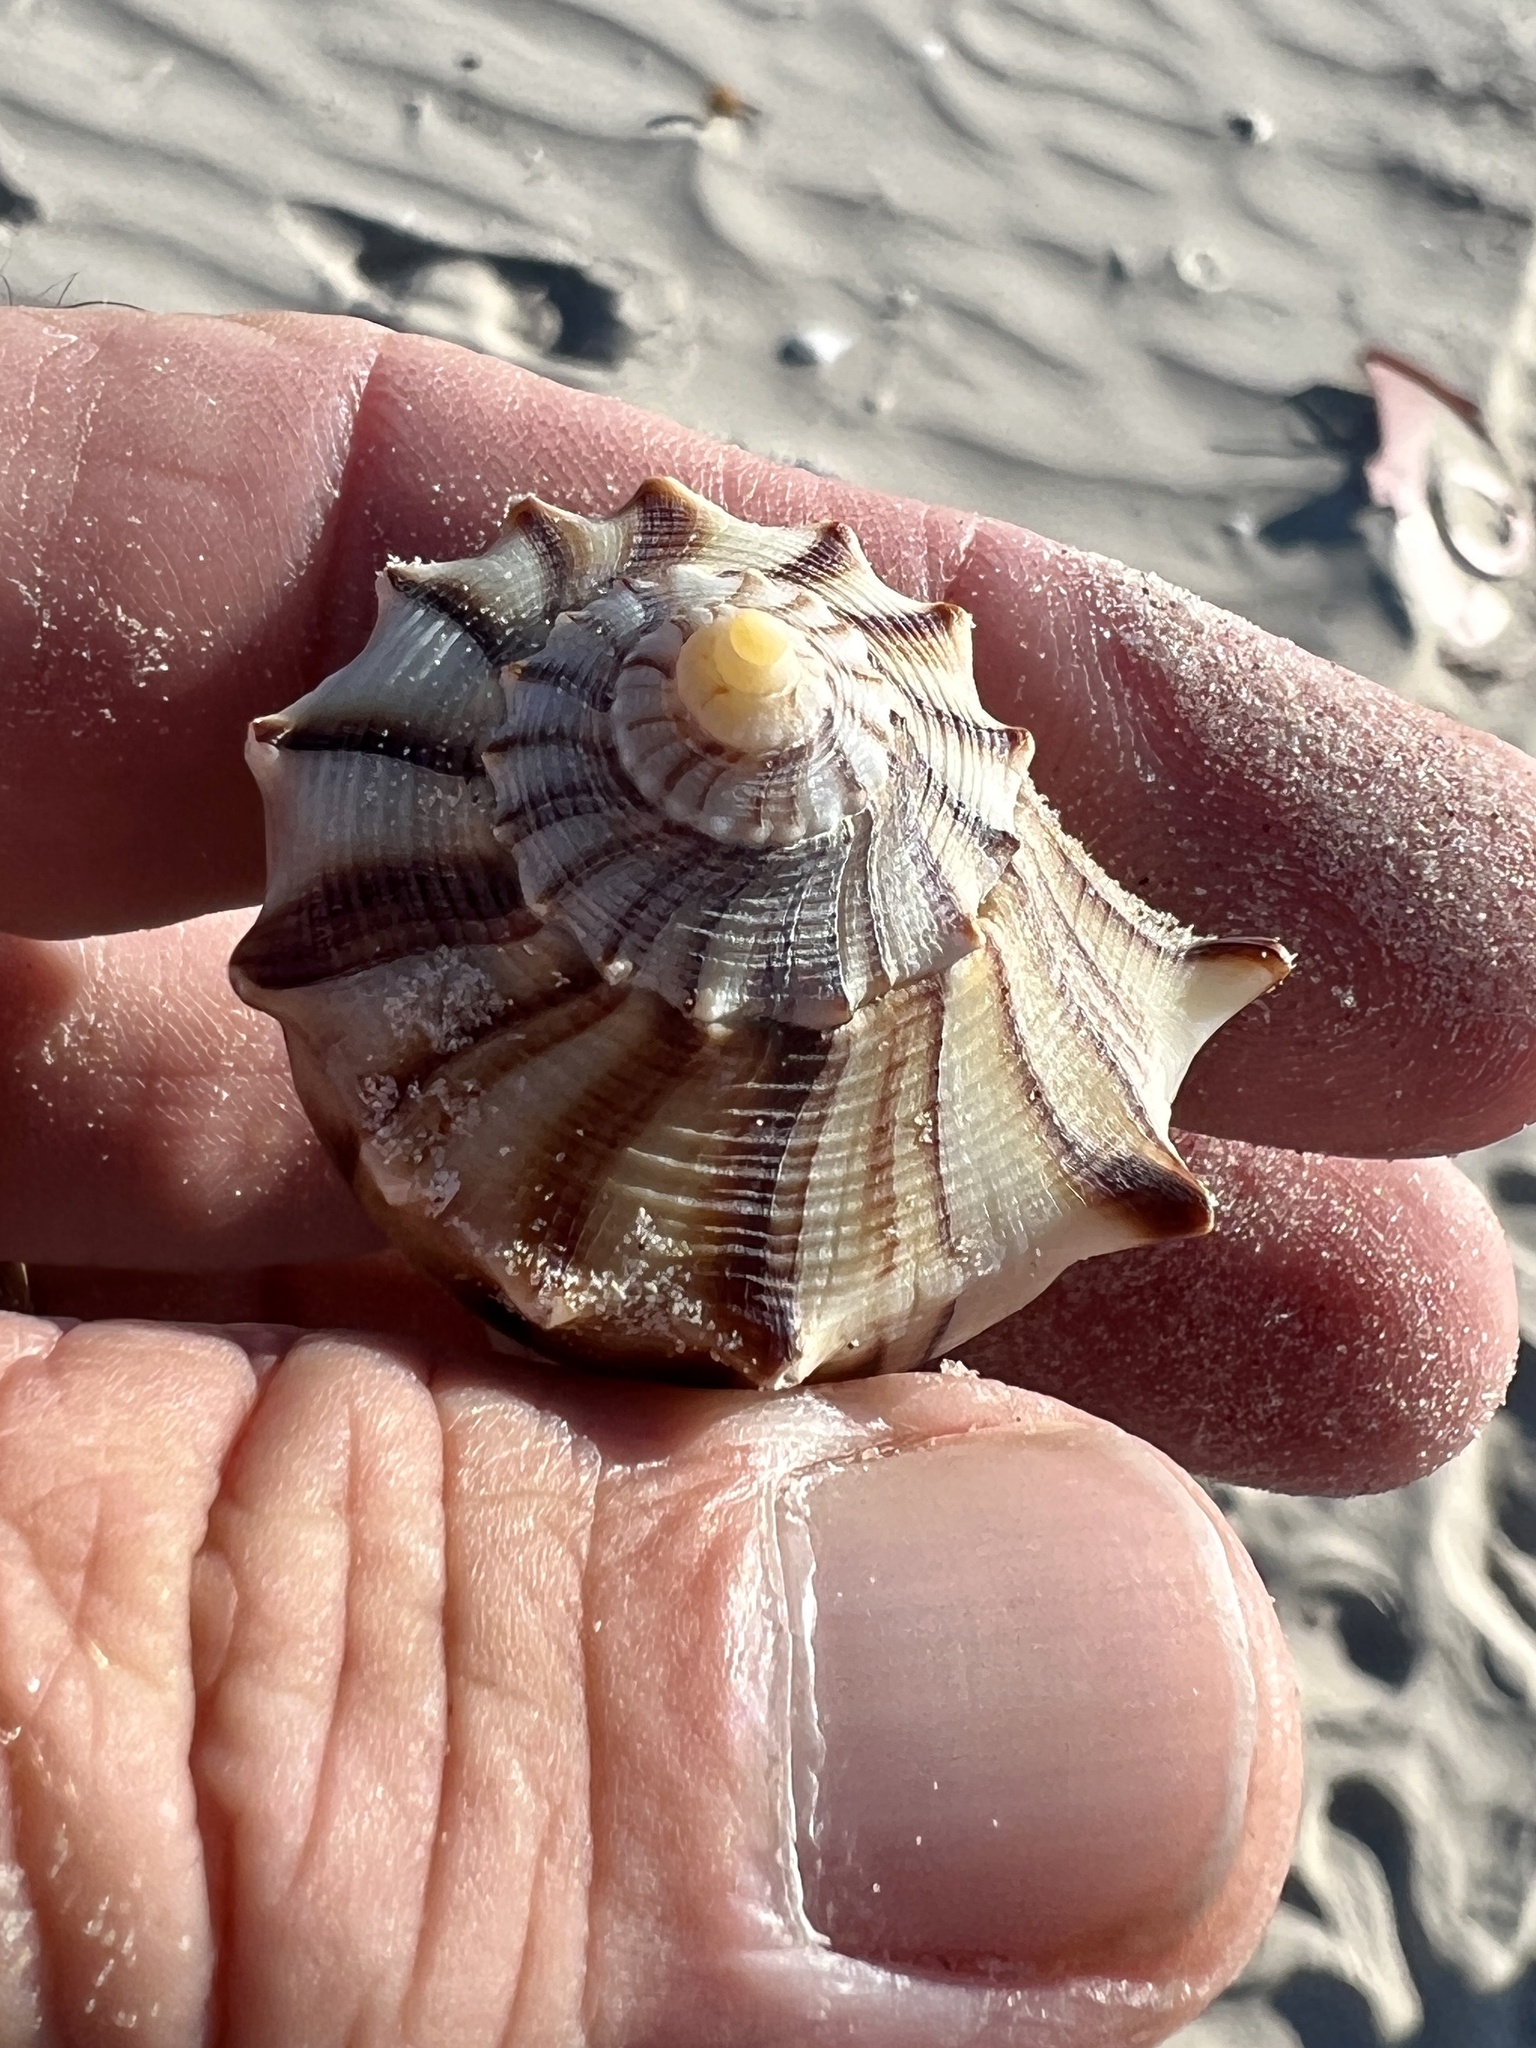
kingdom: Animalia
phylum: Mollusca
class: Gastropoda
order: Neogastropoda
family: Busyconidae
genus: Sinistrofulgur
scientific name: Sinistrofulgur pulleyi
